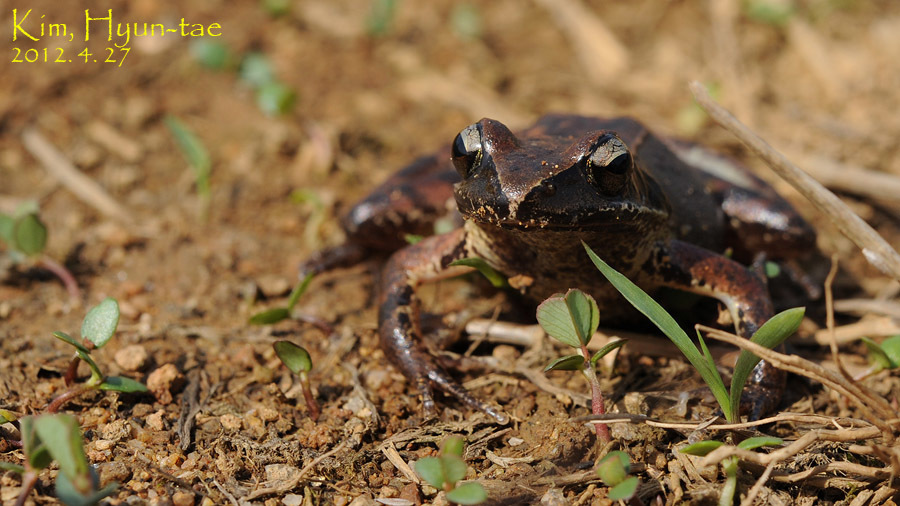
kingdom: Animalia
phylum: Chordata
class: Amphibia
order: Anura
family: Ranidae
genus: Rana
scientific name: Rana coreana
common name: Korean brown frog
